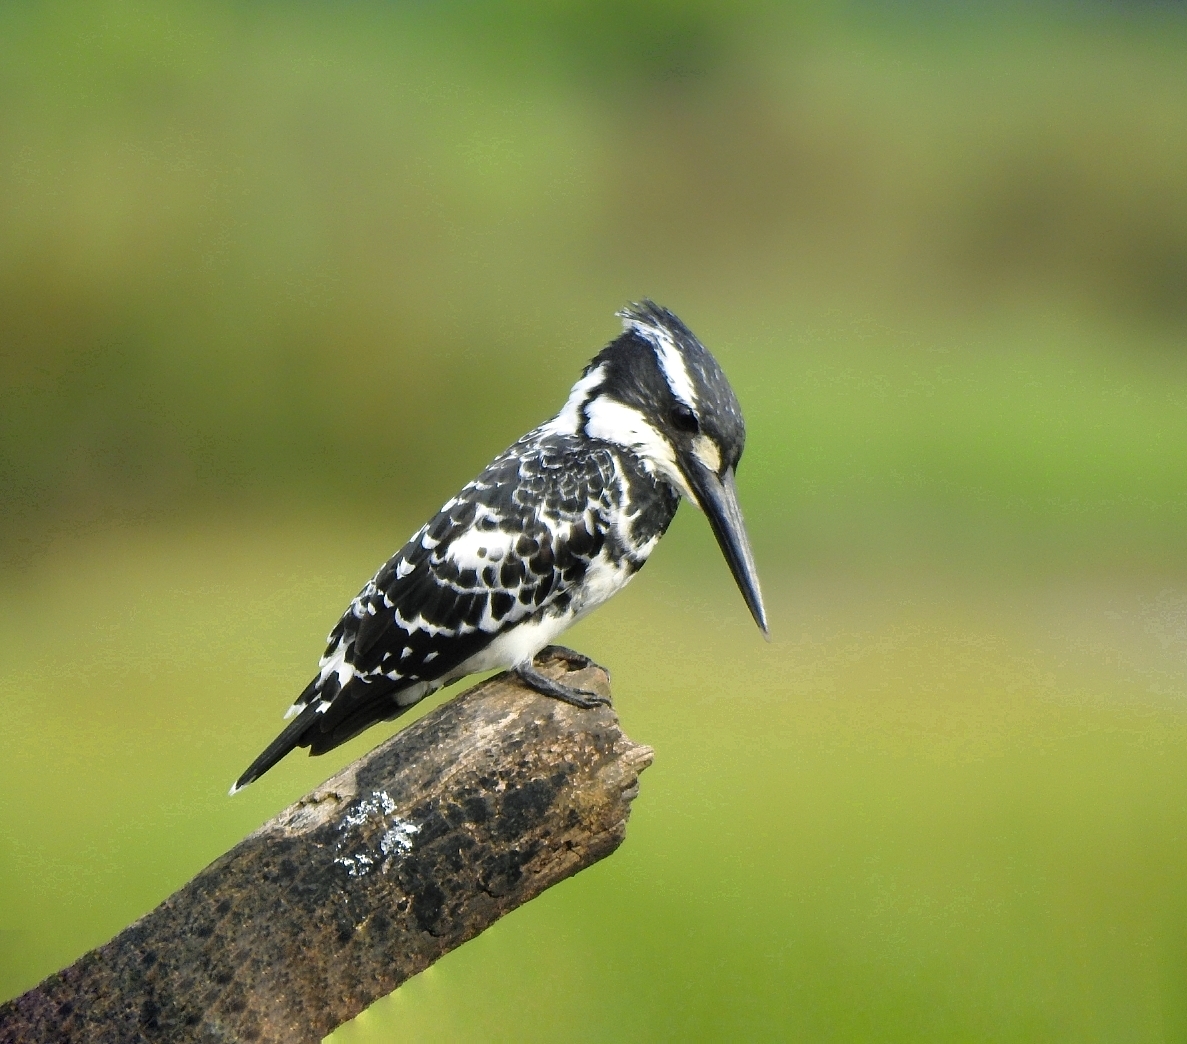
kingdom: Animalia
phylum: Chordata
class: Aves
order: Coraciiformes
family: Alcedinidae
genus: Ceryle
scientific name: Ceryle rudis
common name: Pied kingfisher
